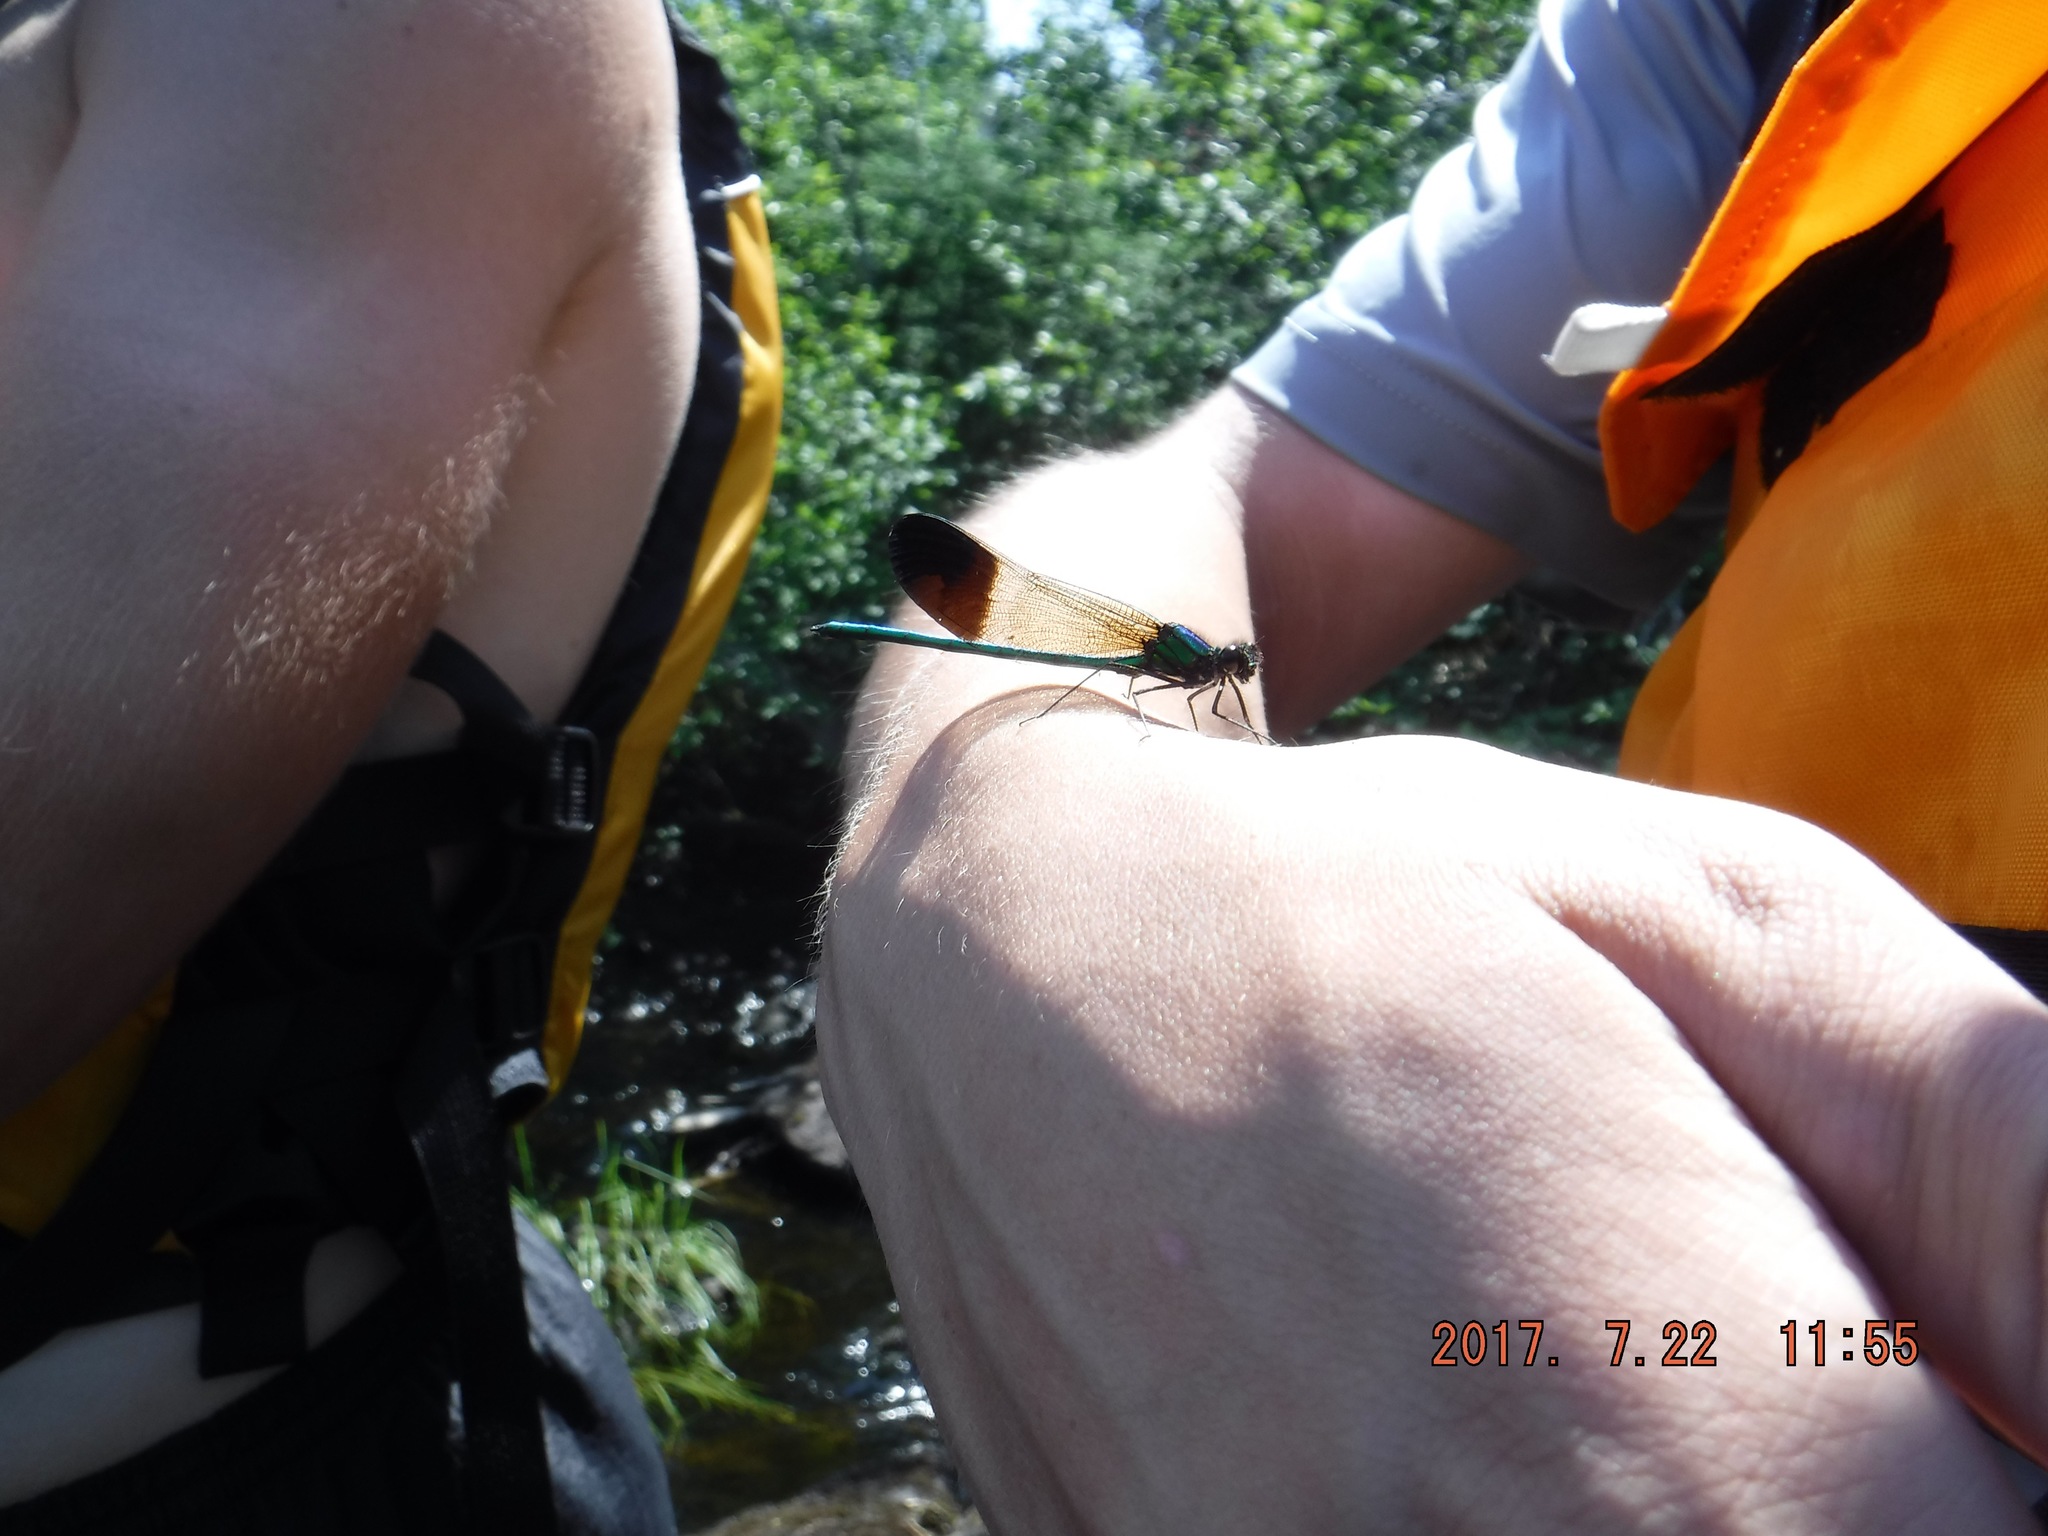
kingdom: Animalia
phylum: Arthropoda
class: Insecta
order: Odonata
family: Calopterygidae
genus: Calopteryx
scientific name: Calopteryx aequabilis
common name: River jewelwing
